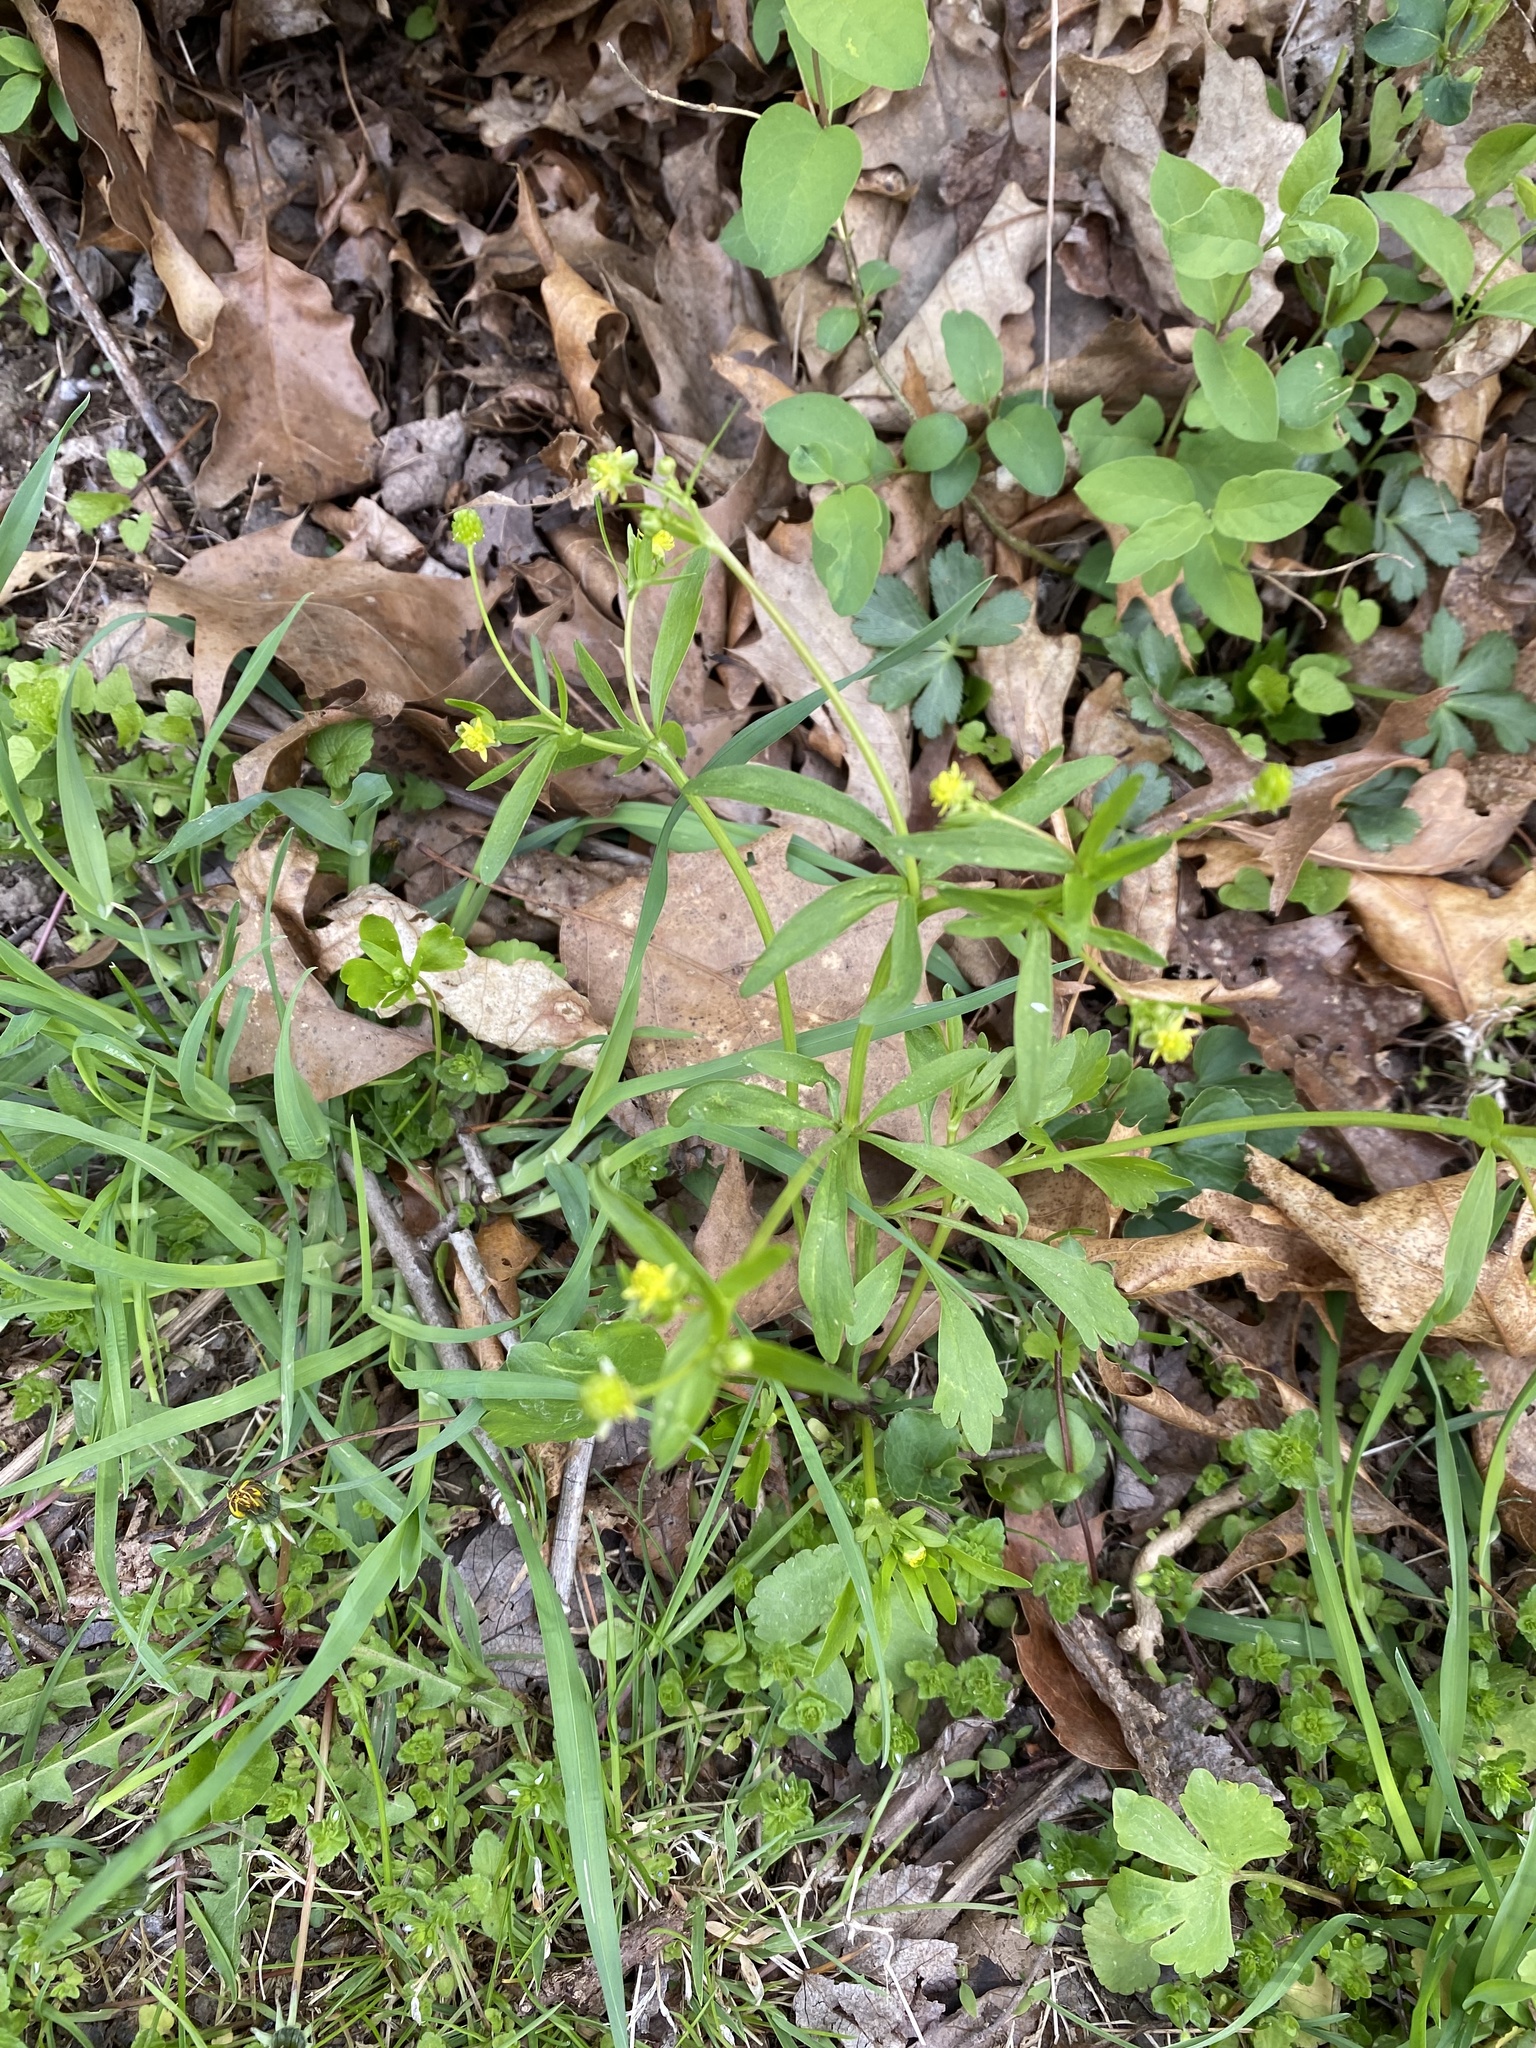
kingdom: Plantae
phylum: Tracheophyta
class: Magnoliopsida
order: Ranunculales
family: Ranunculaceae
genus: Ranunculus
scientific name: Ranunculus abortivus
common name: Early wood buttercup
